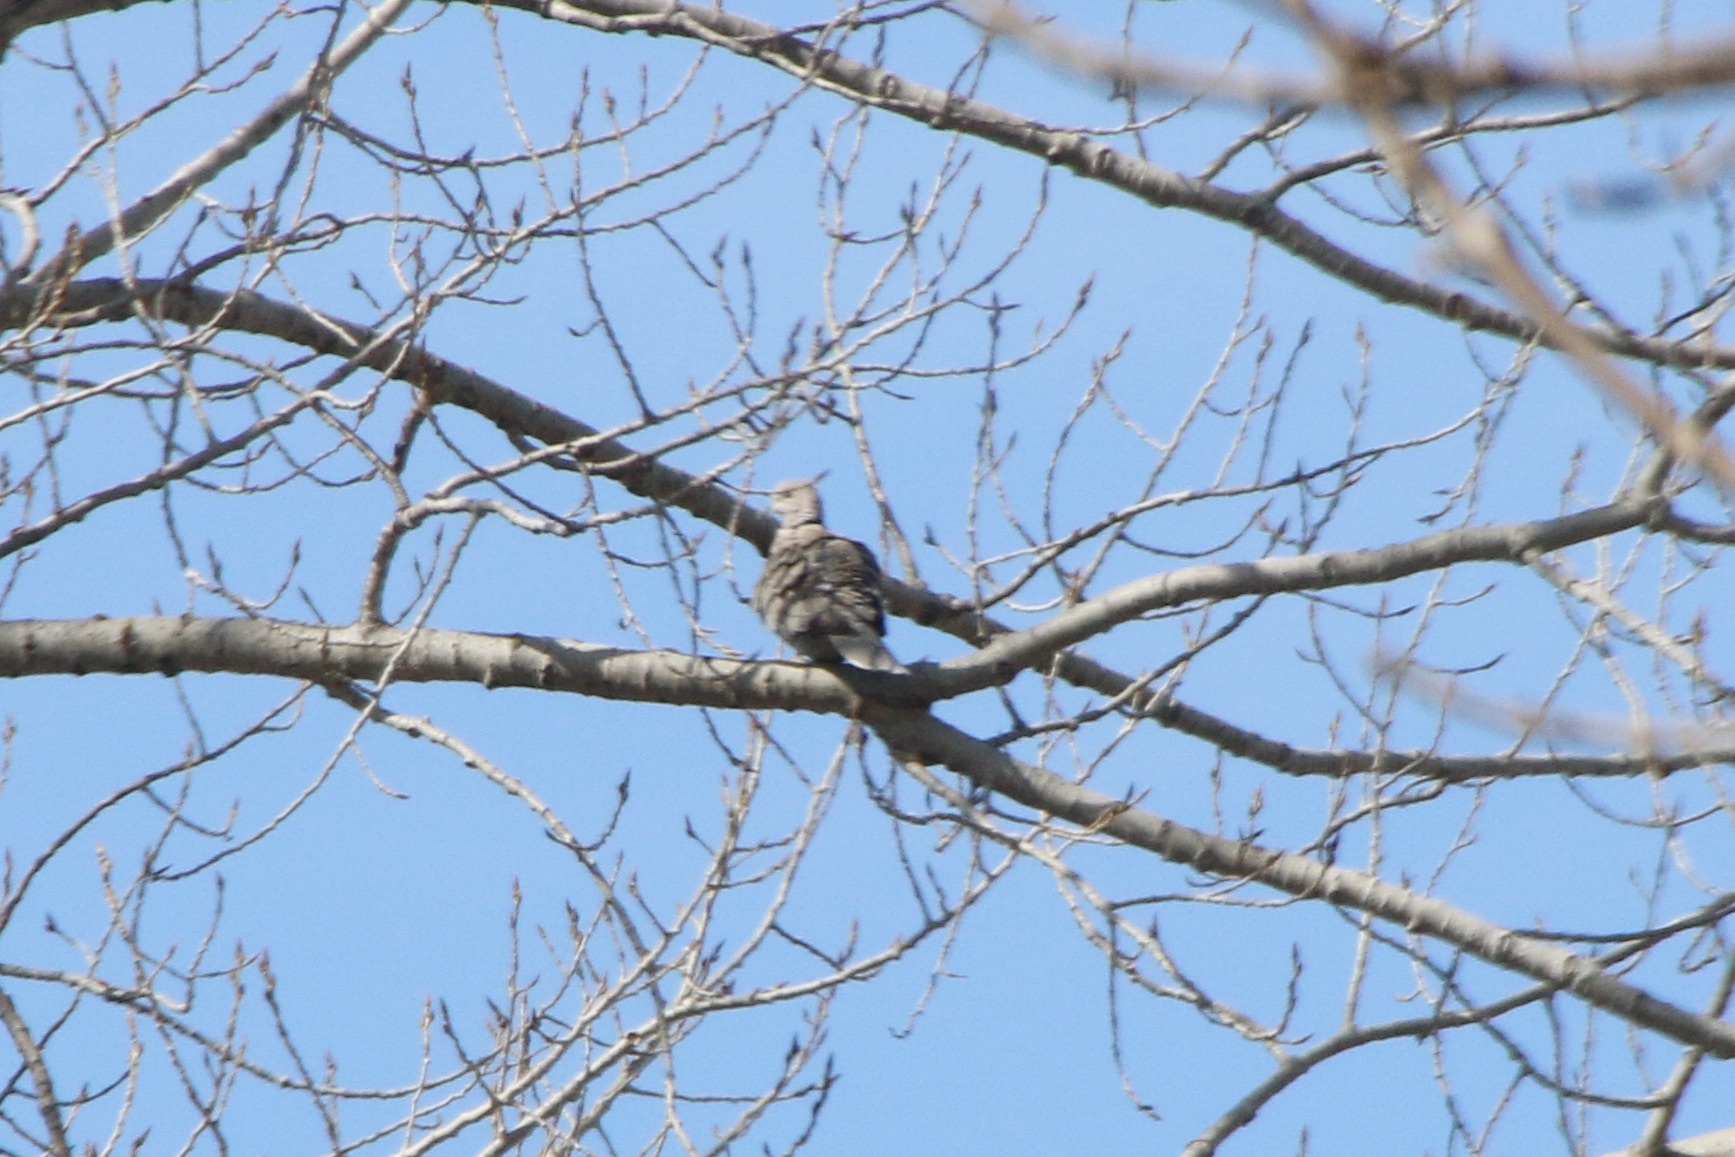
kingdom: Animalia
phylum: Chordata
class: Aves
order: Columbiformes
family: Columbidae
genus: Streptopelia
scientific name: Streptopelia decaocto
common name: Eurasian collared dove
